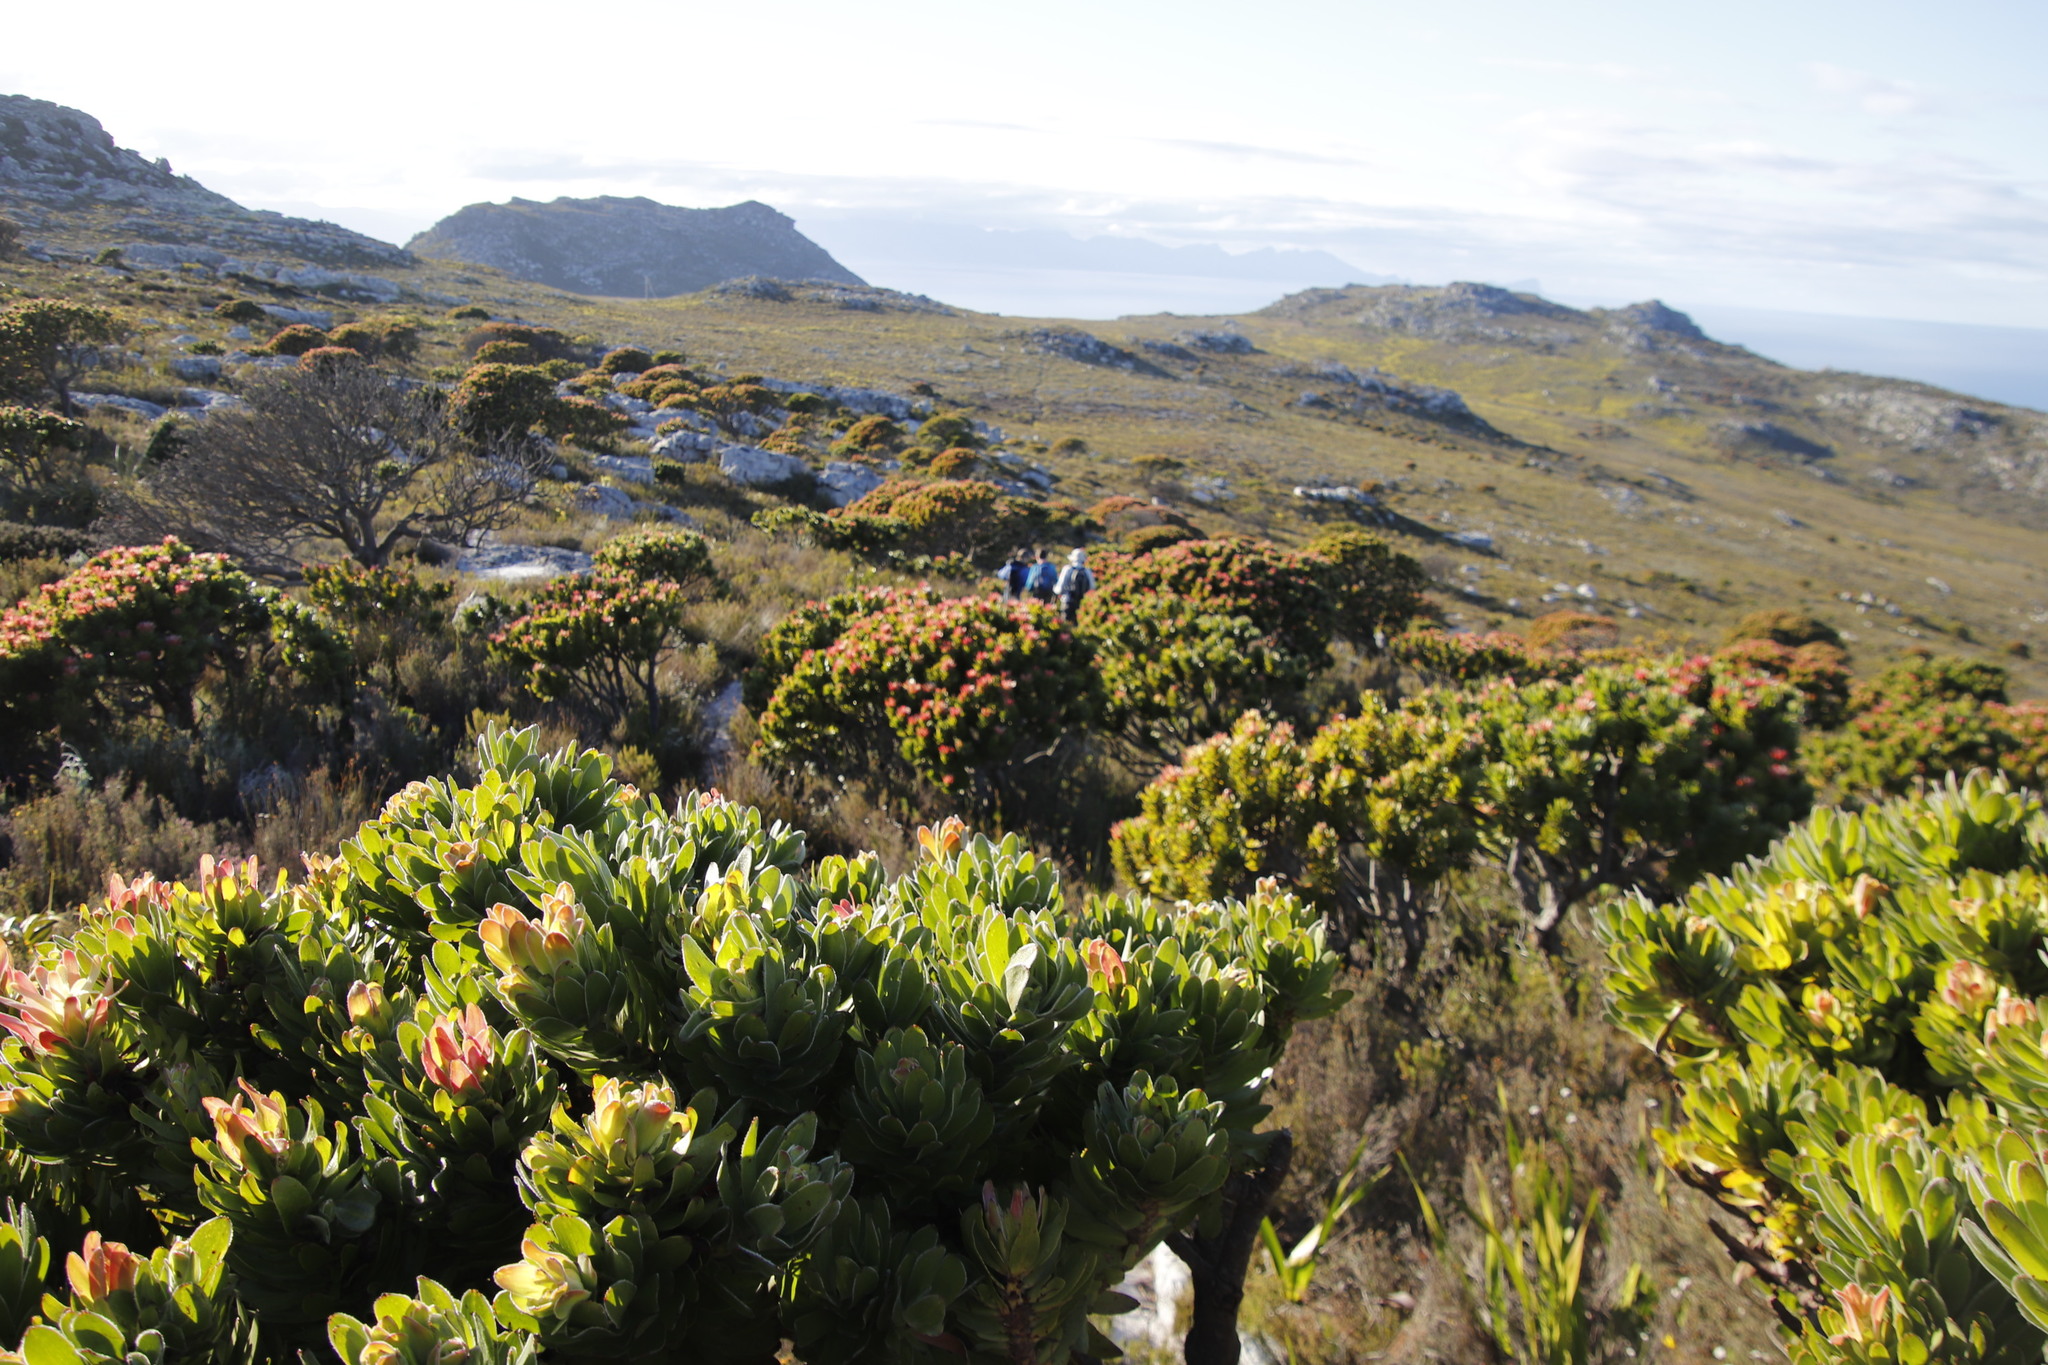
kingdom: Plantae
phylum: Tracheophyta
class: Magnoliopsida
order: Proteales
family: Proteaceae
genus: Mimetes
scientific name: Mimetes fimbriifolius
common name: Fringed bottlebrush
